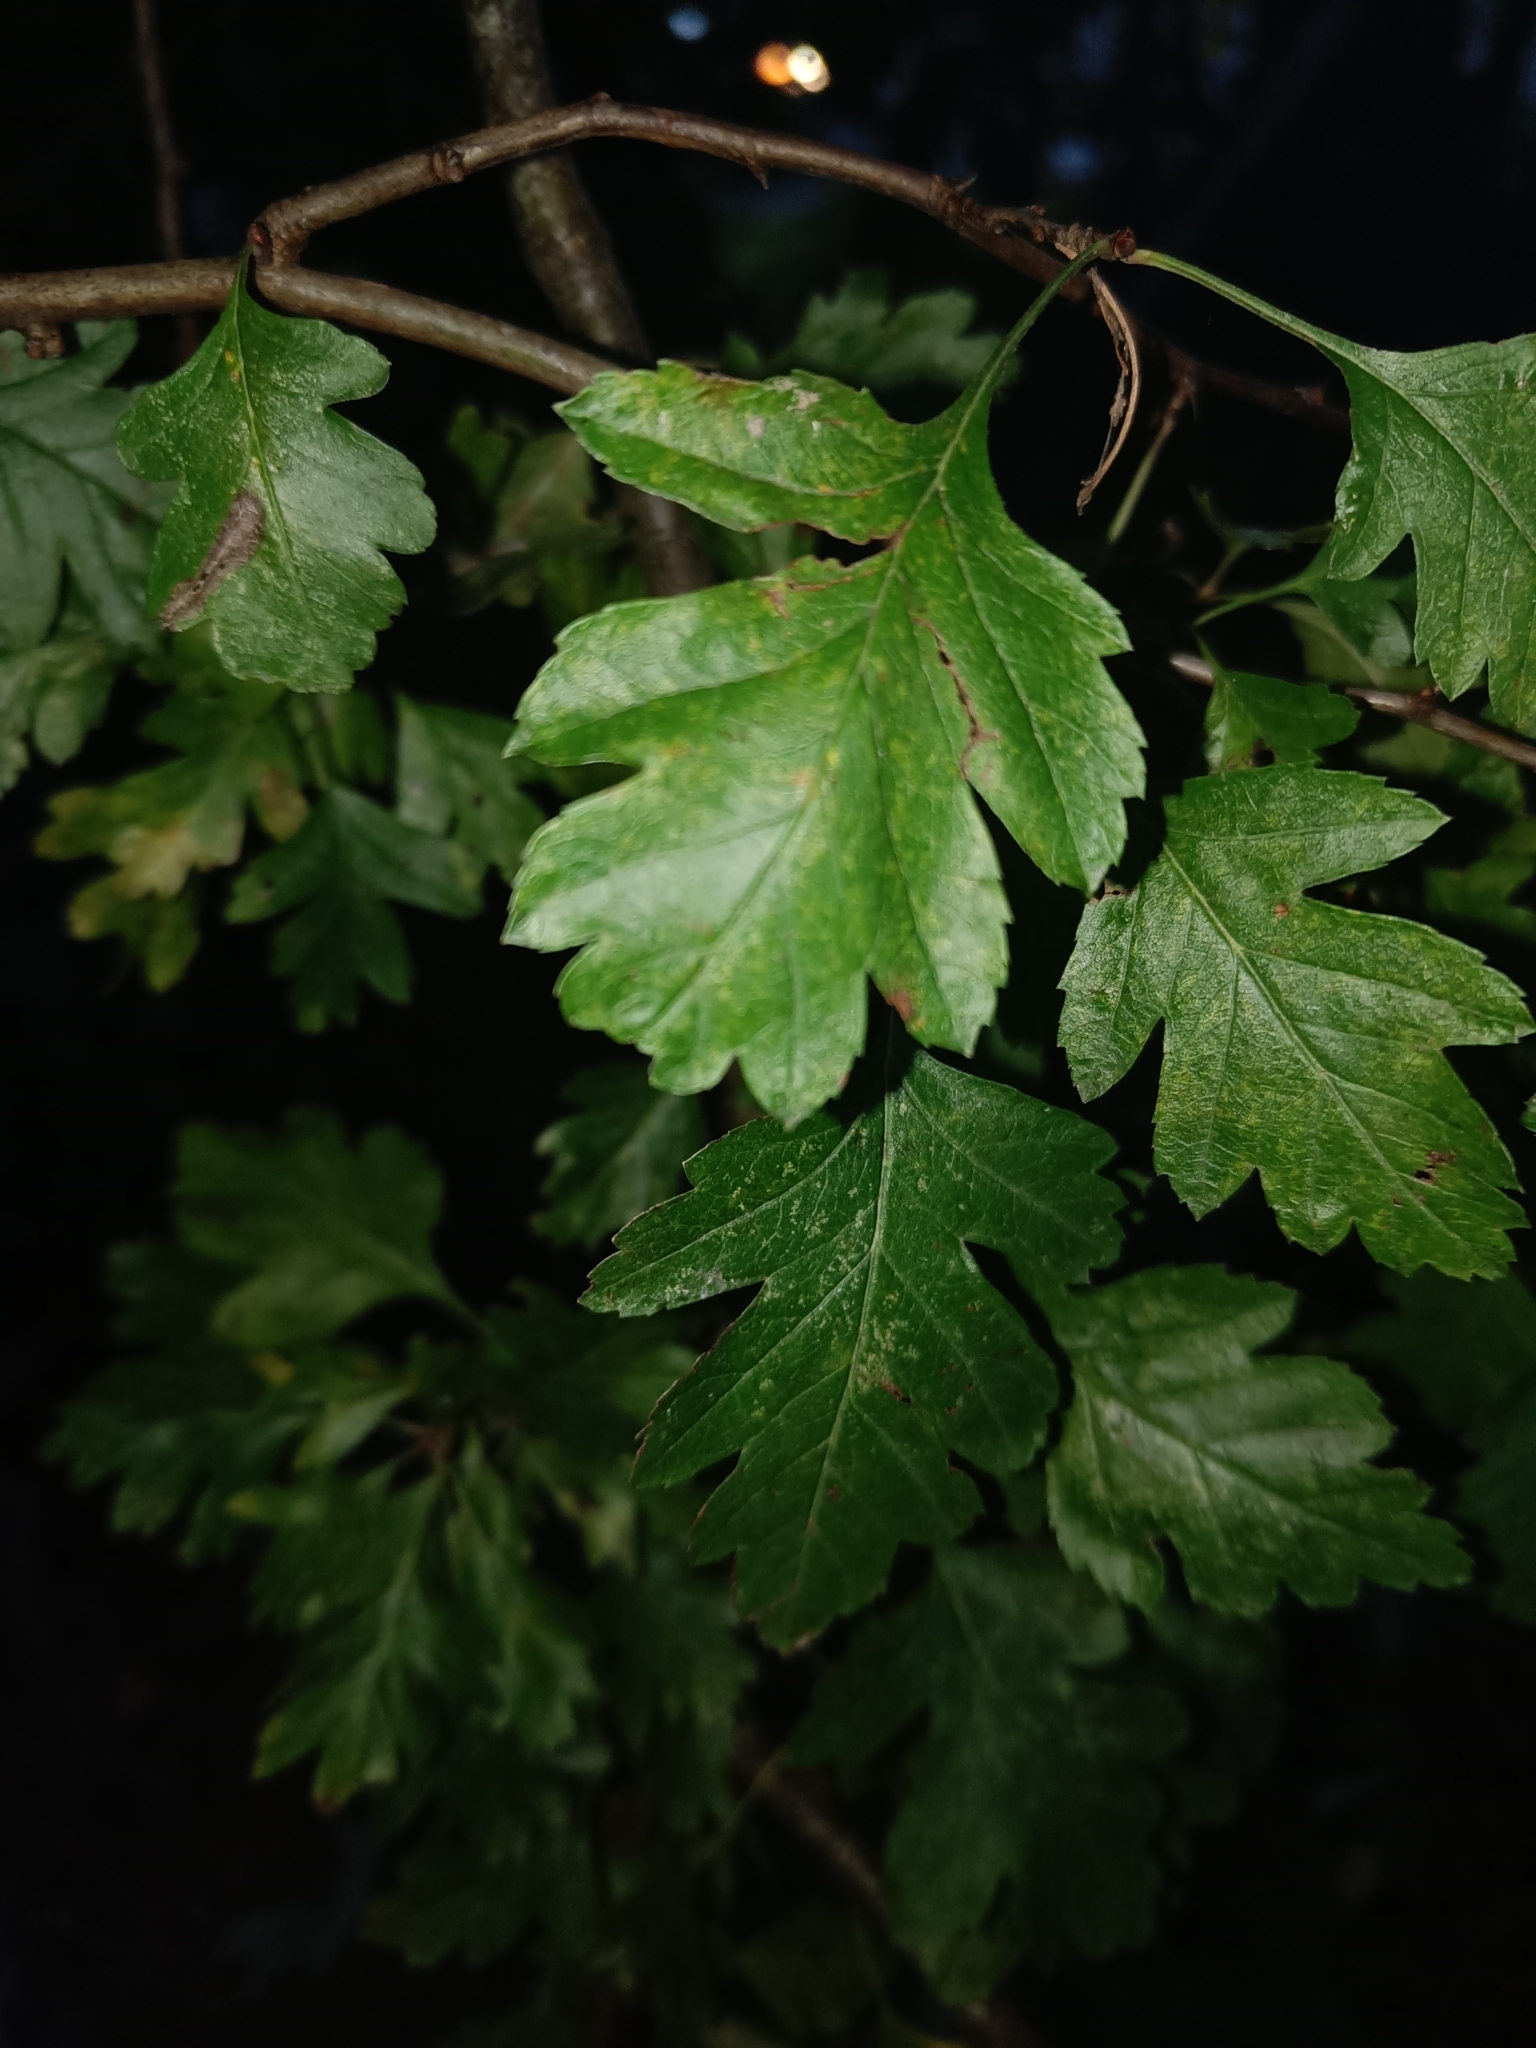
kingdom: Plantae
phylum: Tracheophyta
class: Magnoliopsida
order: Rosales
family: Rosaceae
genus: Crataegus
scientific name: Crataegus monogyna
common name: Hawthorn
